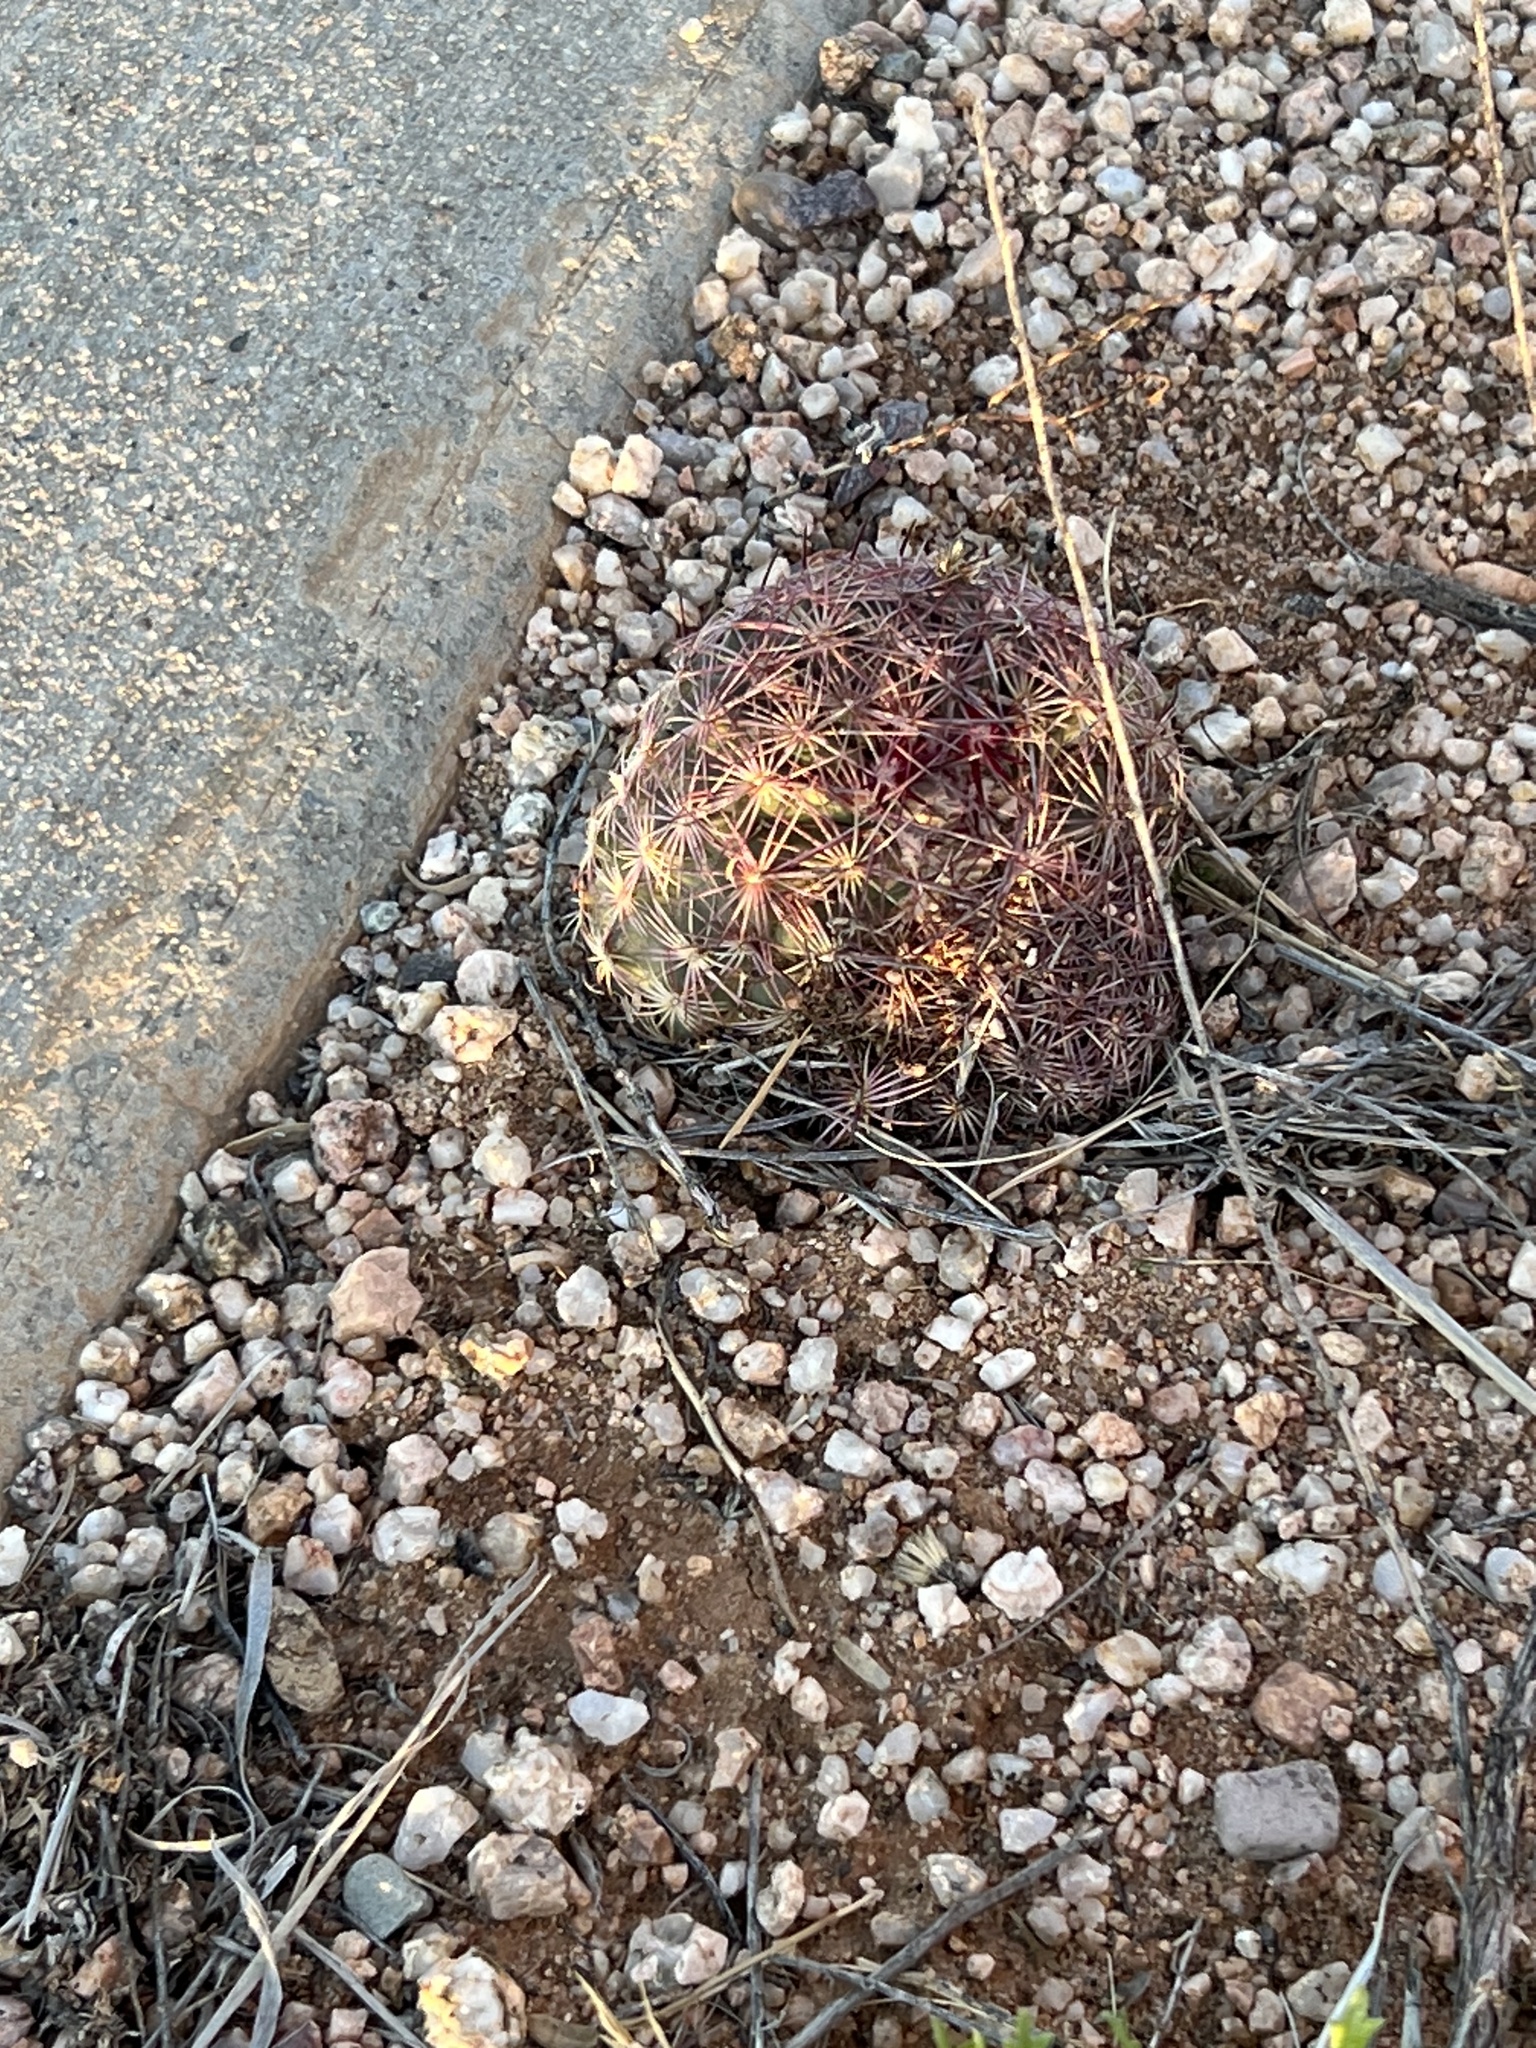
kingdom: Plantae
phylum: Tracheophyta
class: Magnoliopsida
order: Caryophyllales
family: Cactaceae
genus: Sclerocactus
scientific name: Sclerocactus johnsonii
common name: Eight-spine fishhook cactus
